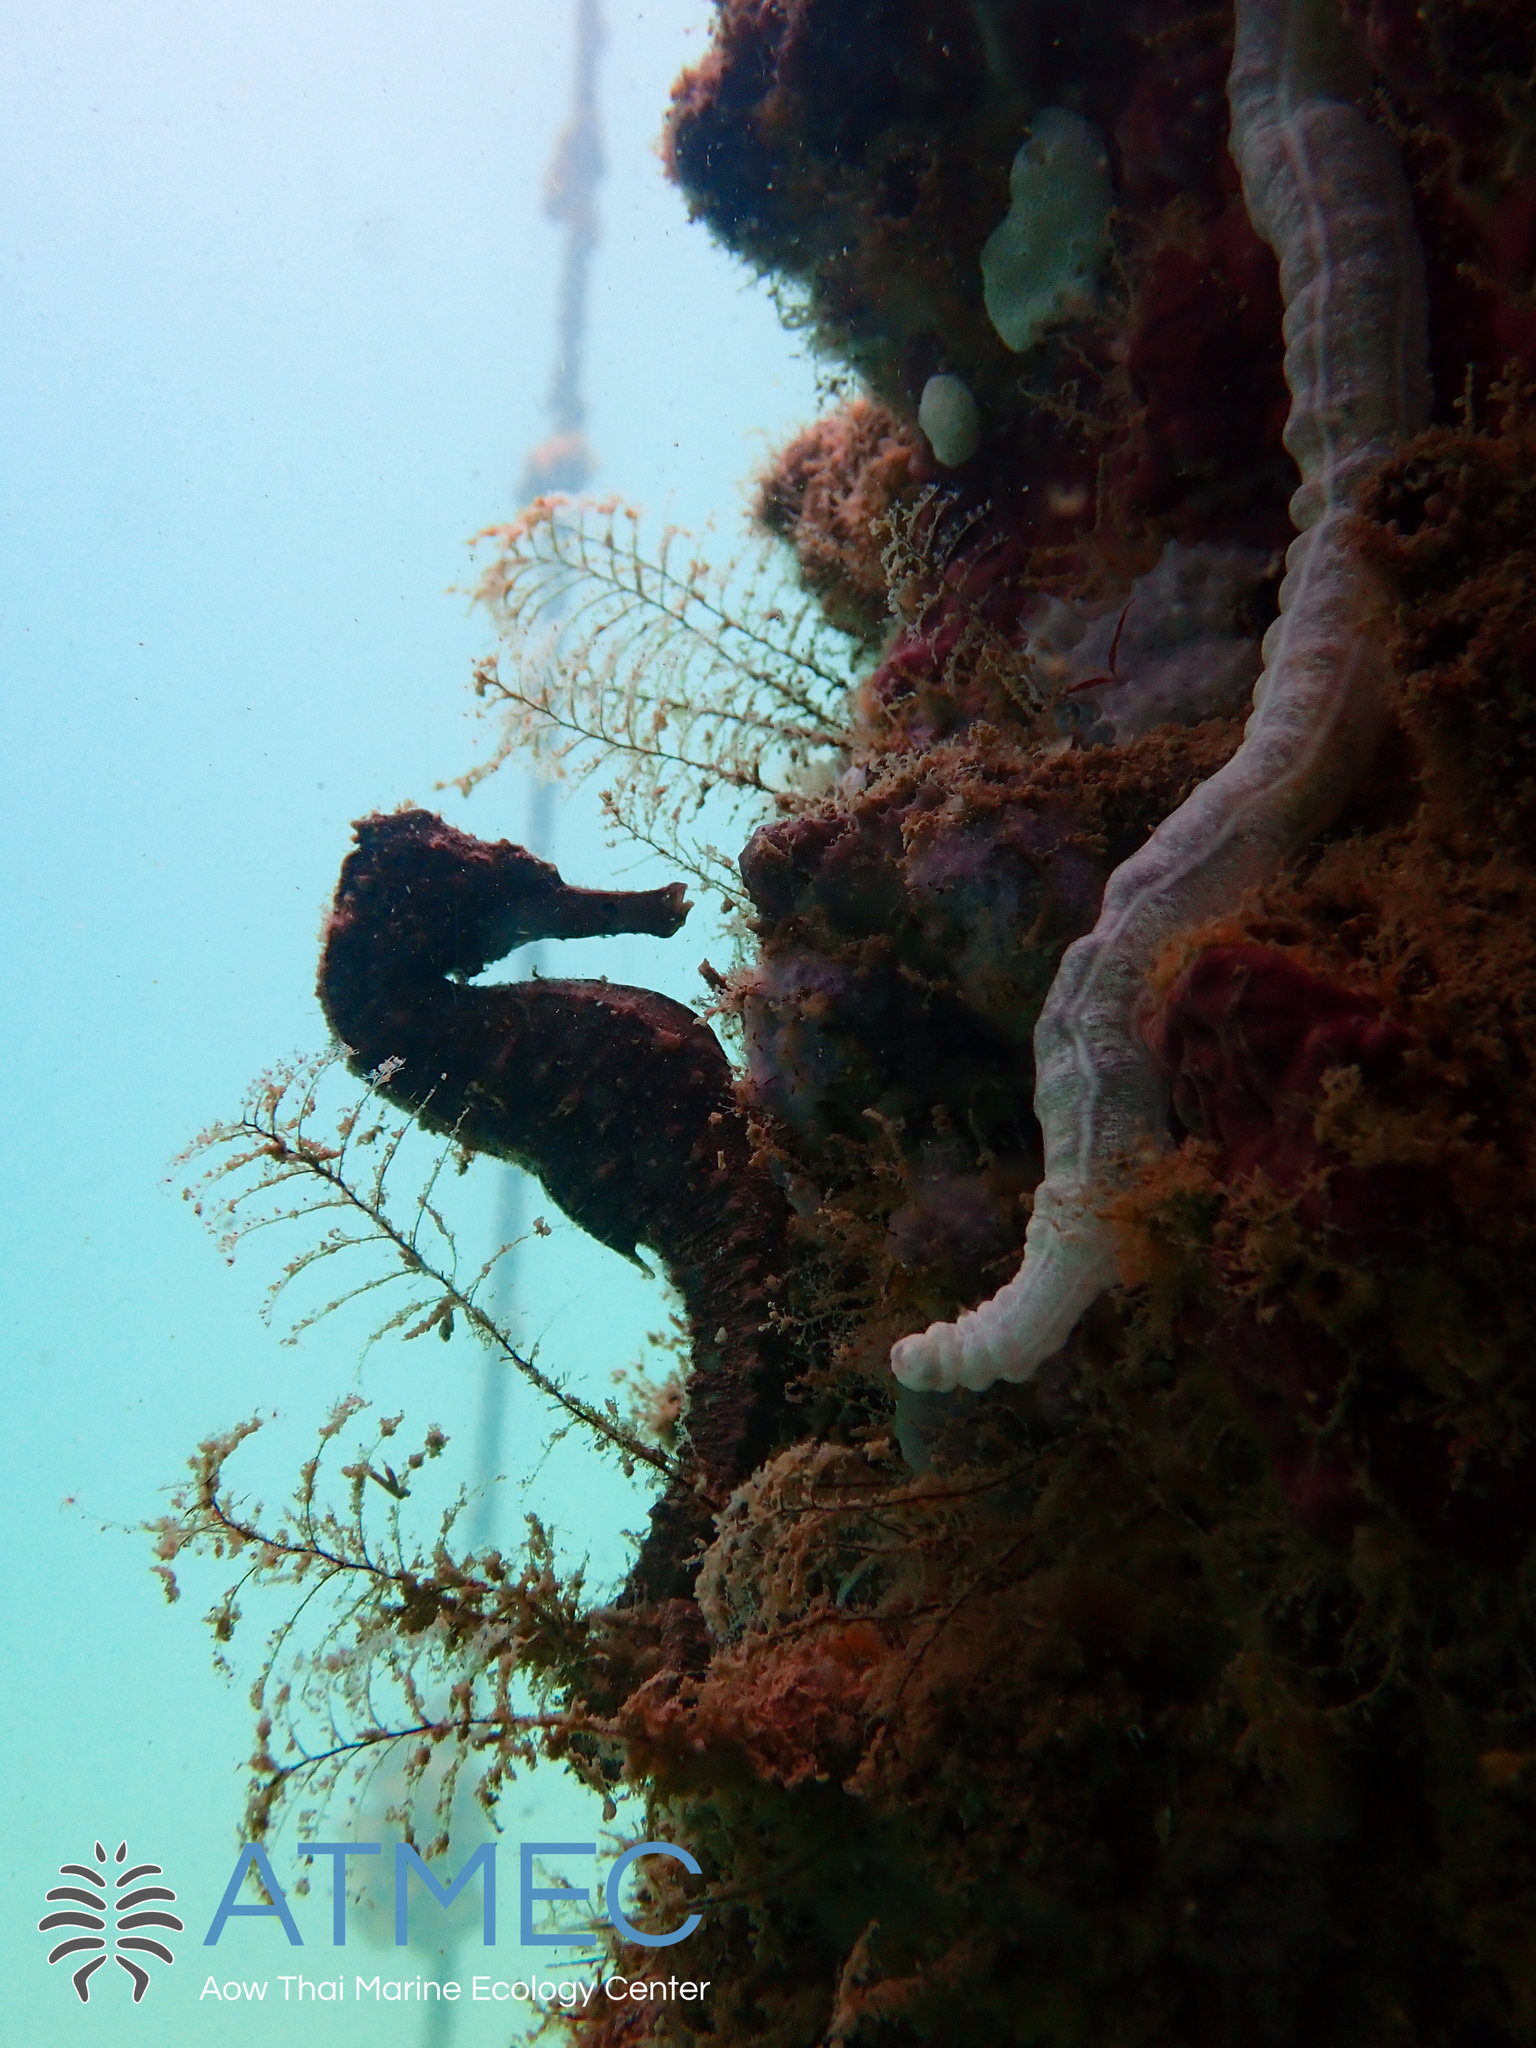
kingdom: Animalia
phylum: Chordata
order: Syngnathiformes
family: Syngnathidae
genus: Hippocampus
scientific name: Hippocampus kuda
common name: Spotted seahorse
